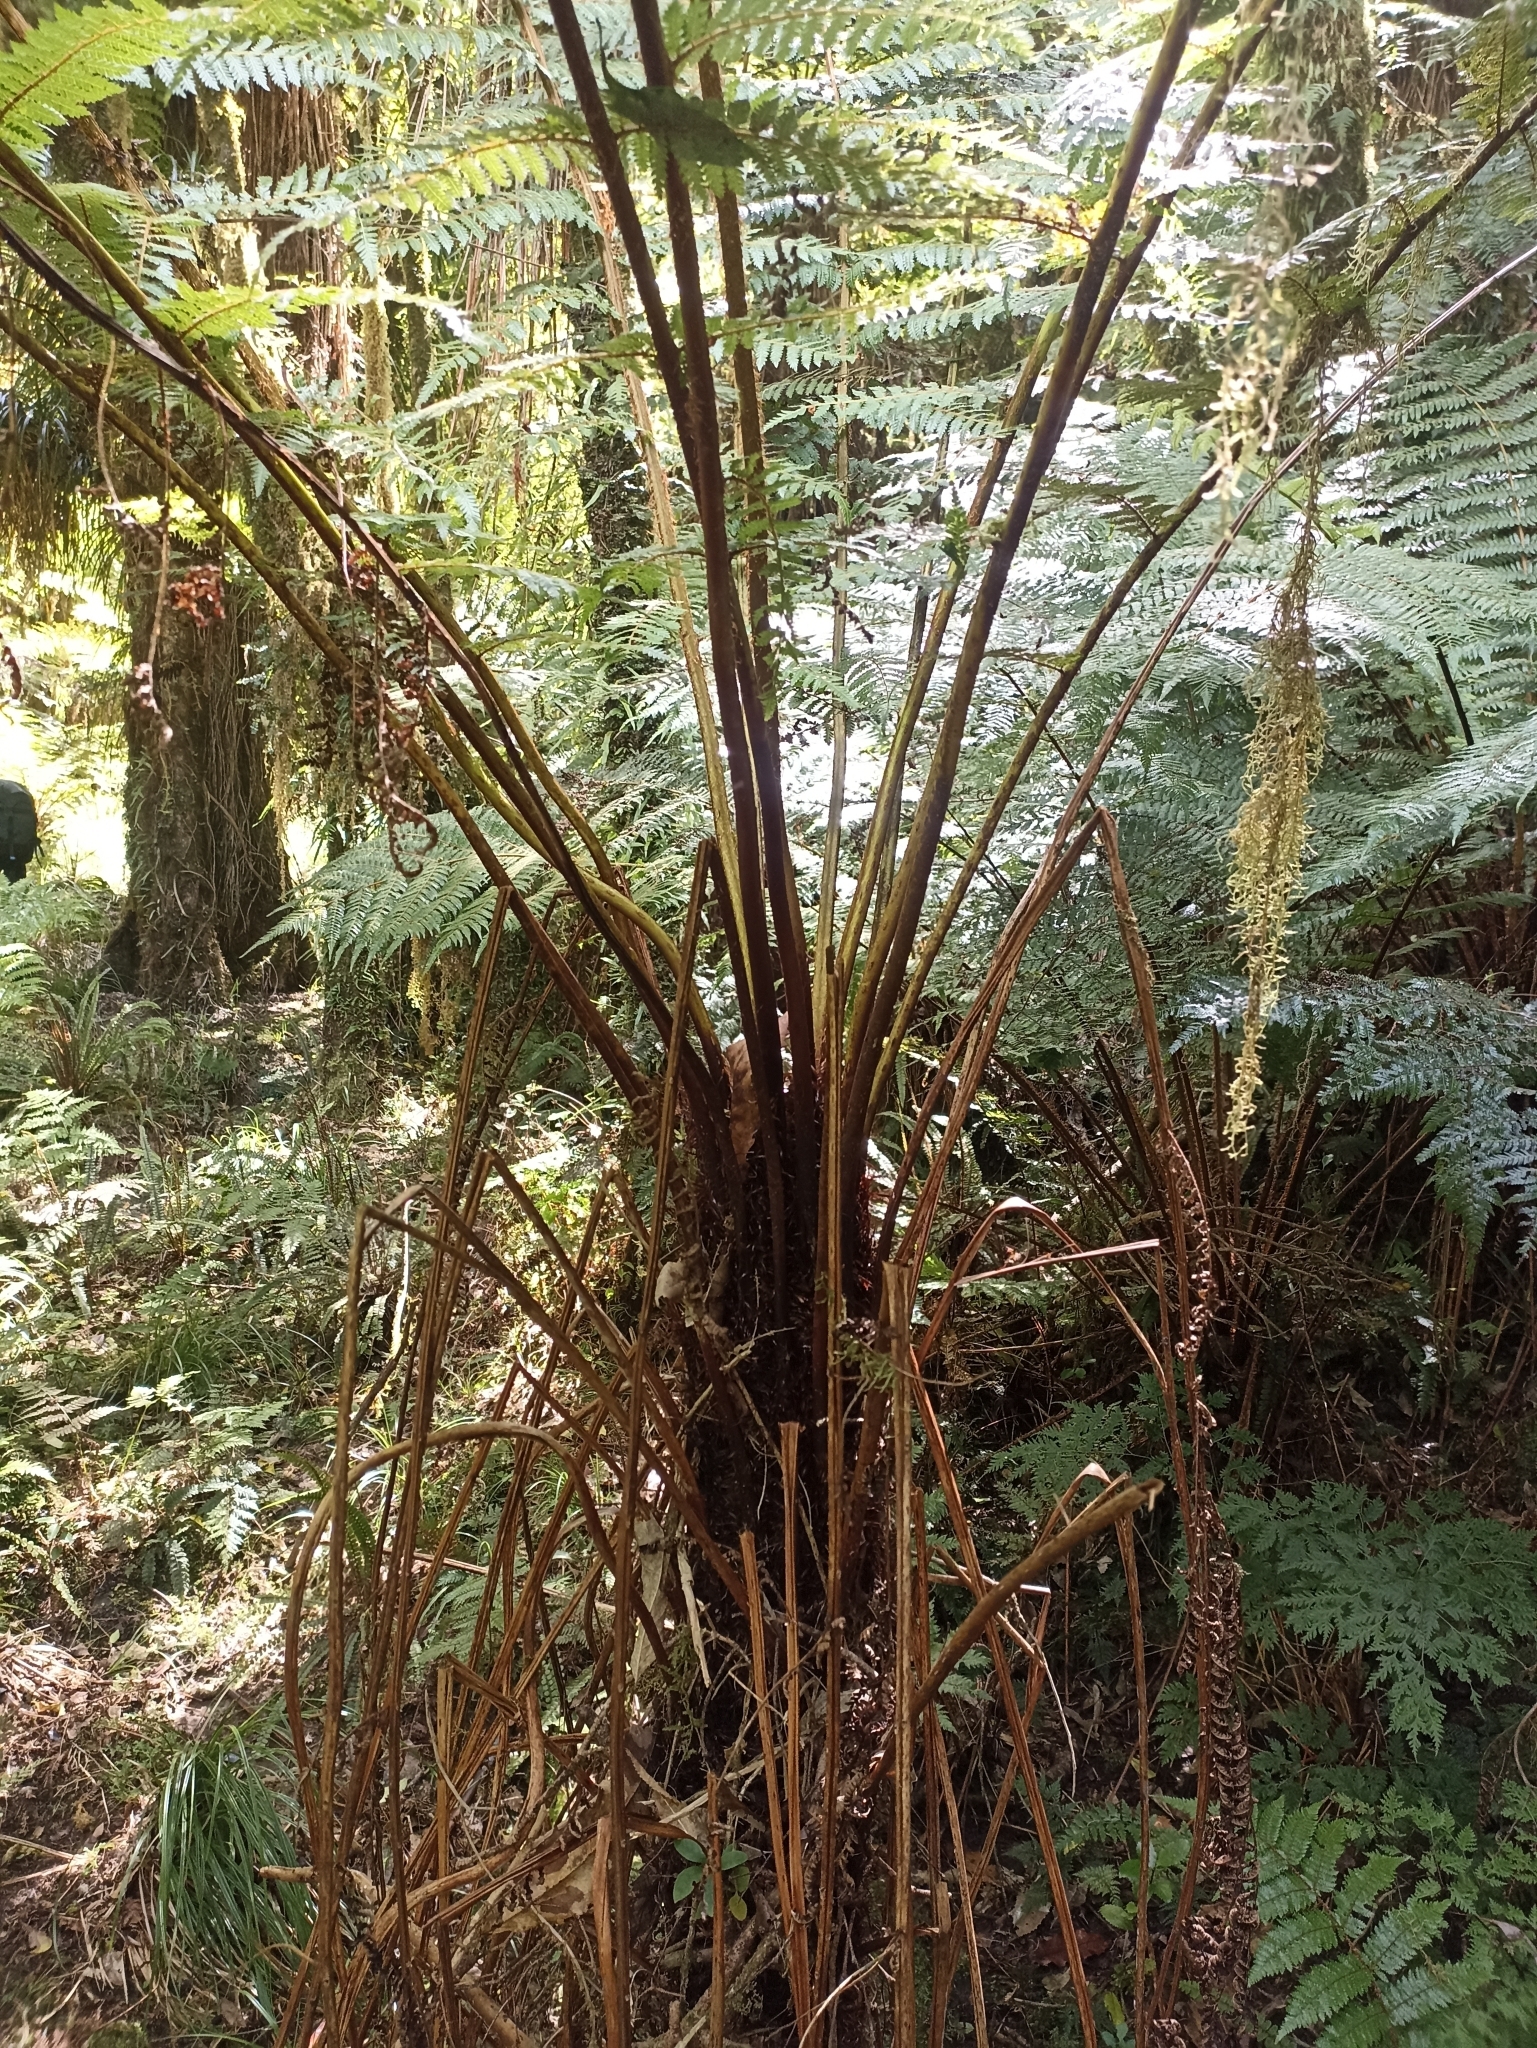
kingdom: Plantae
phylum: Tracheophyta
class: Polypodiopsida
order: Cyatheales
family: Cyatheaceae
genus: Alsophila
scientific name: Alsophila smithii
